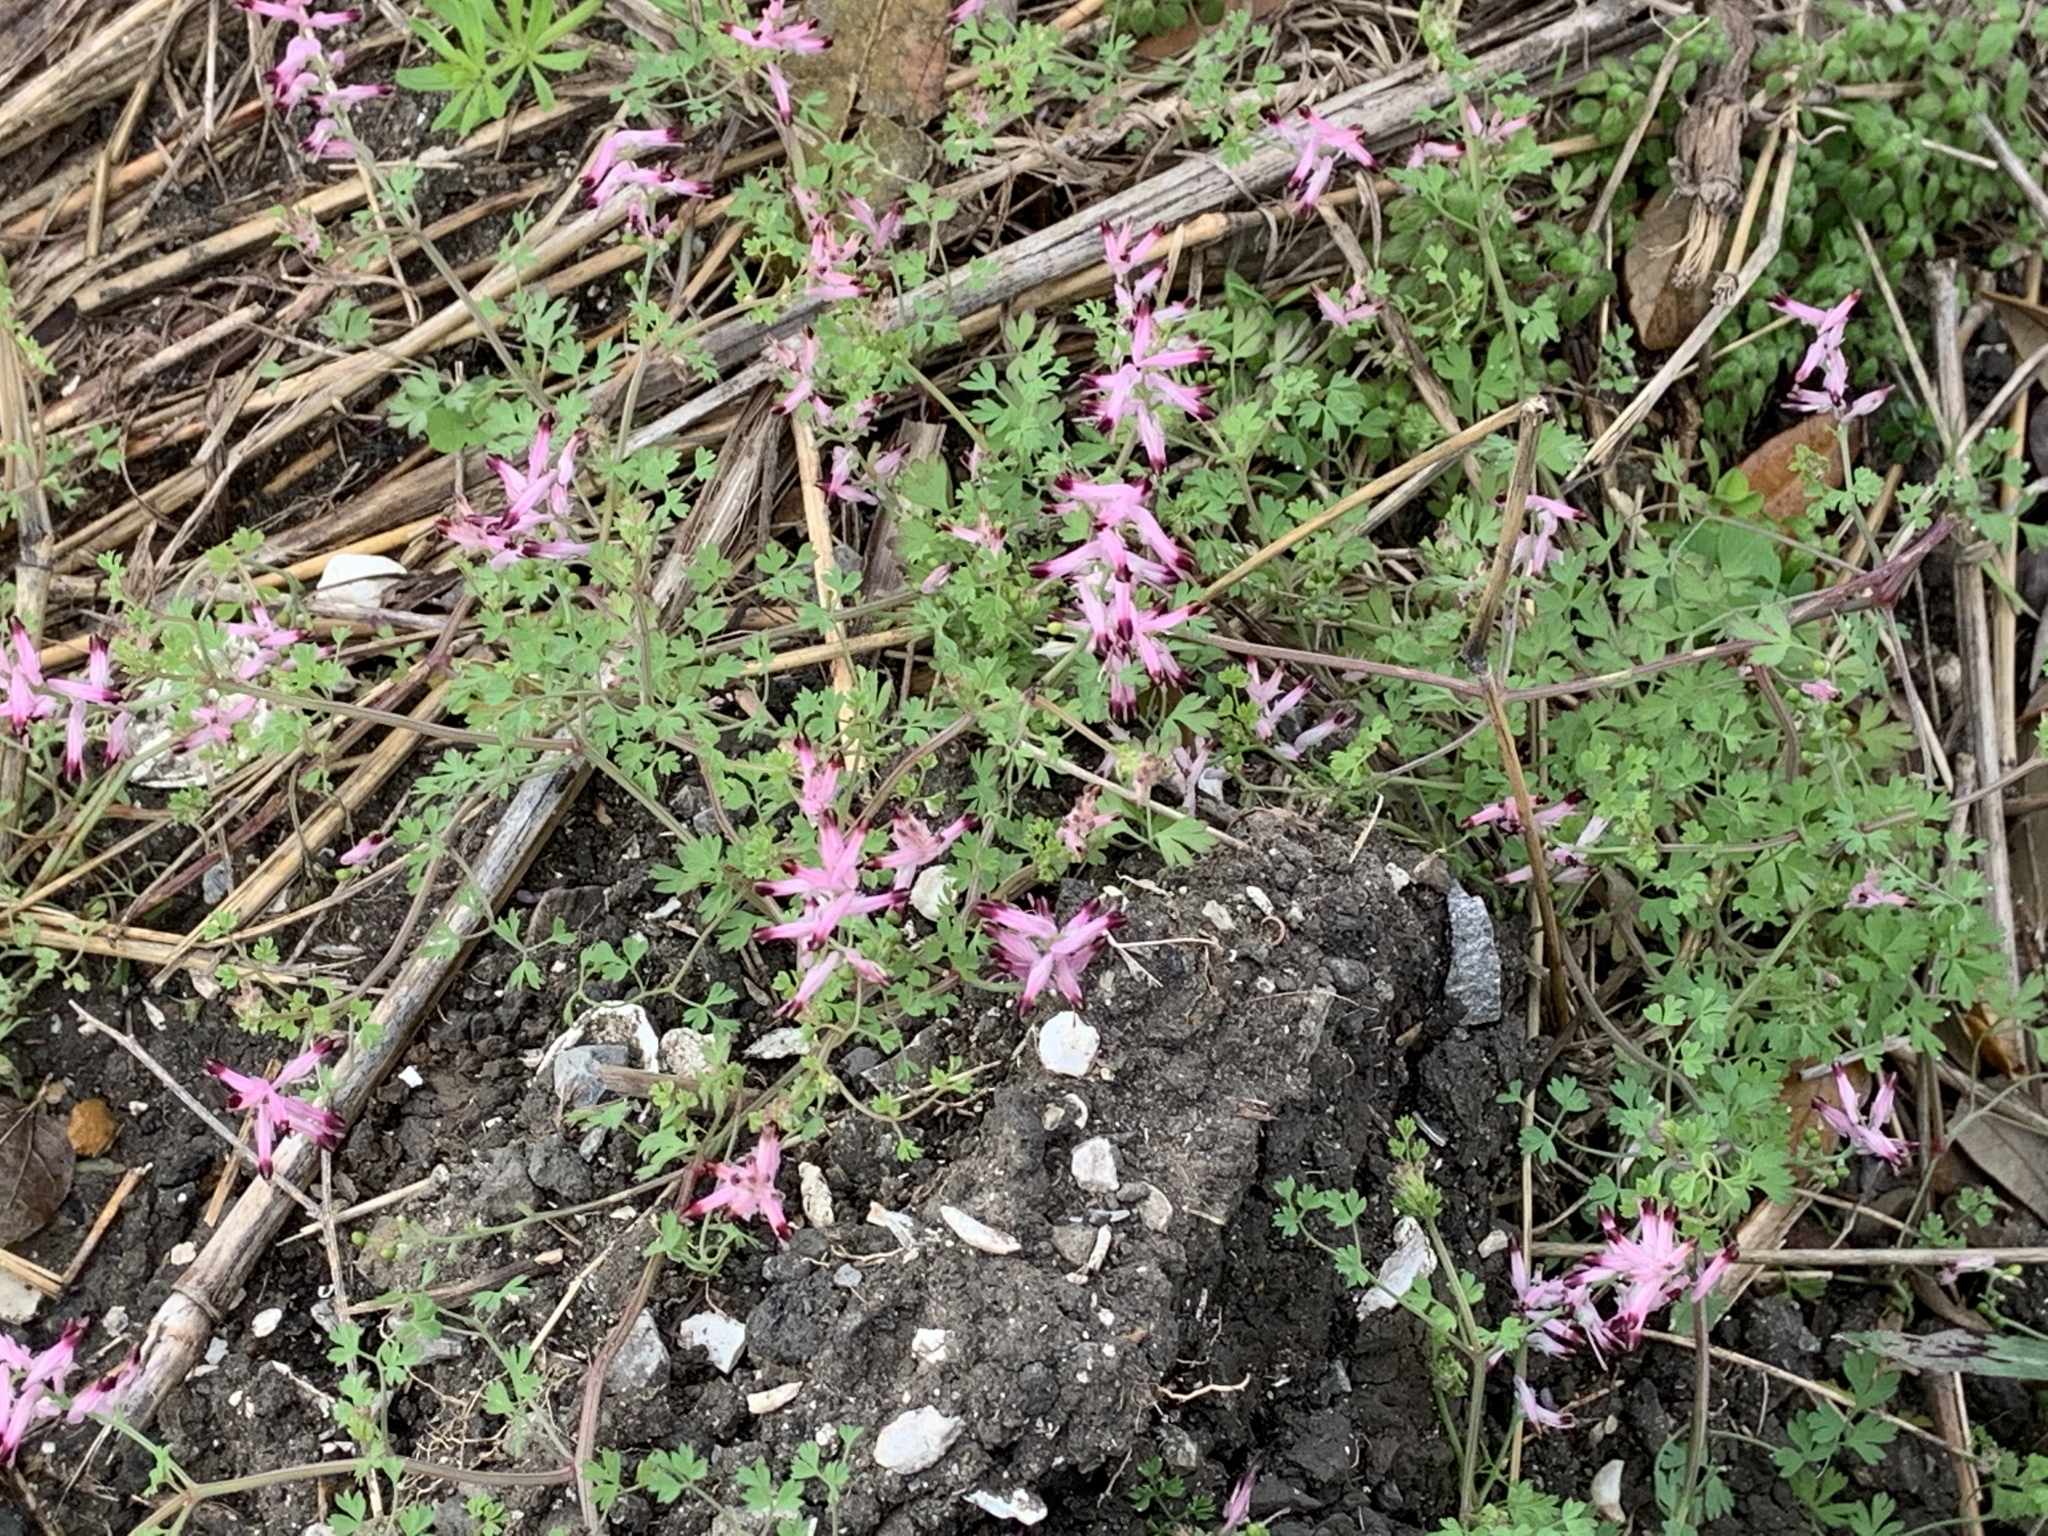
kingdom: Plantae
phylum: Tracheophyta
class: Magnoliopsida
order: Ranunculales
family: Papaveraceae
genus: Fumaria
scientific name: Fumaria muralis
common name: Common ramping-fumitory
